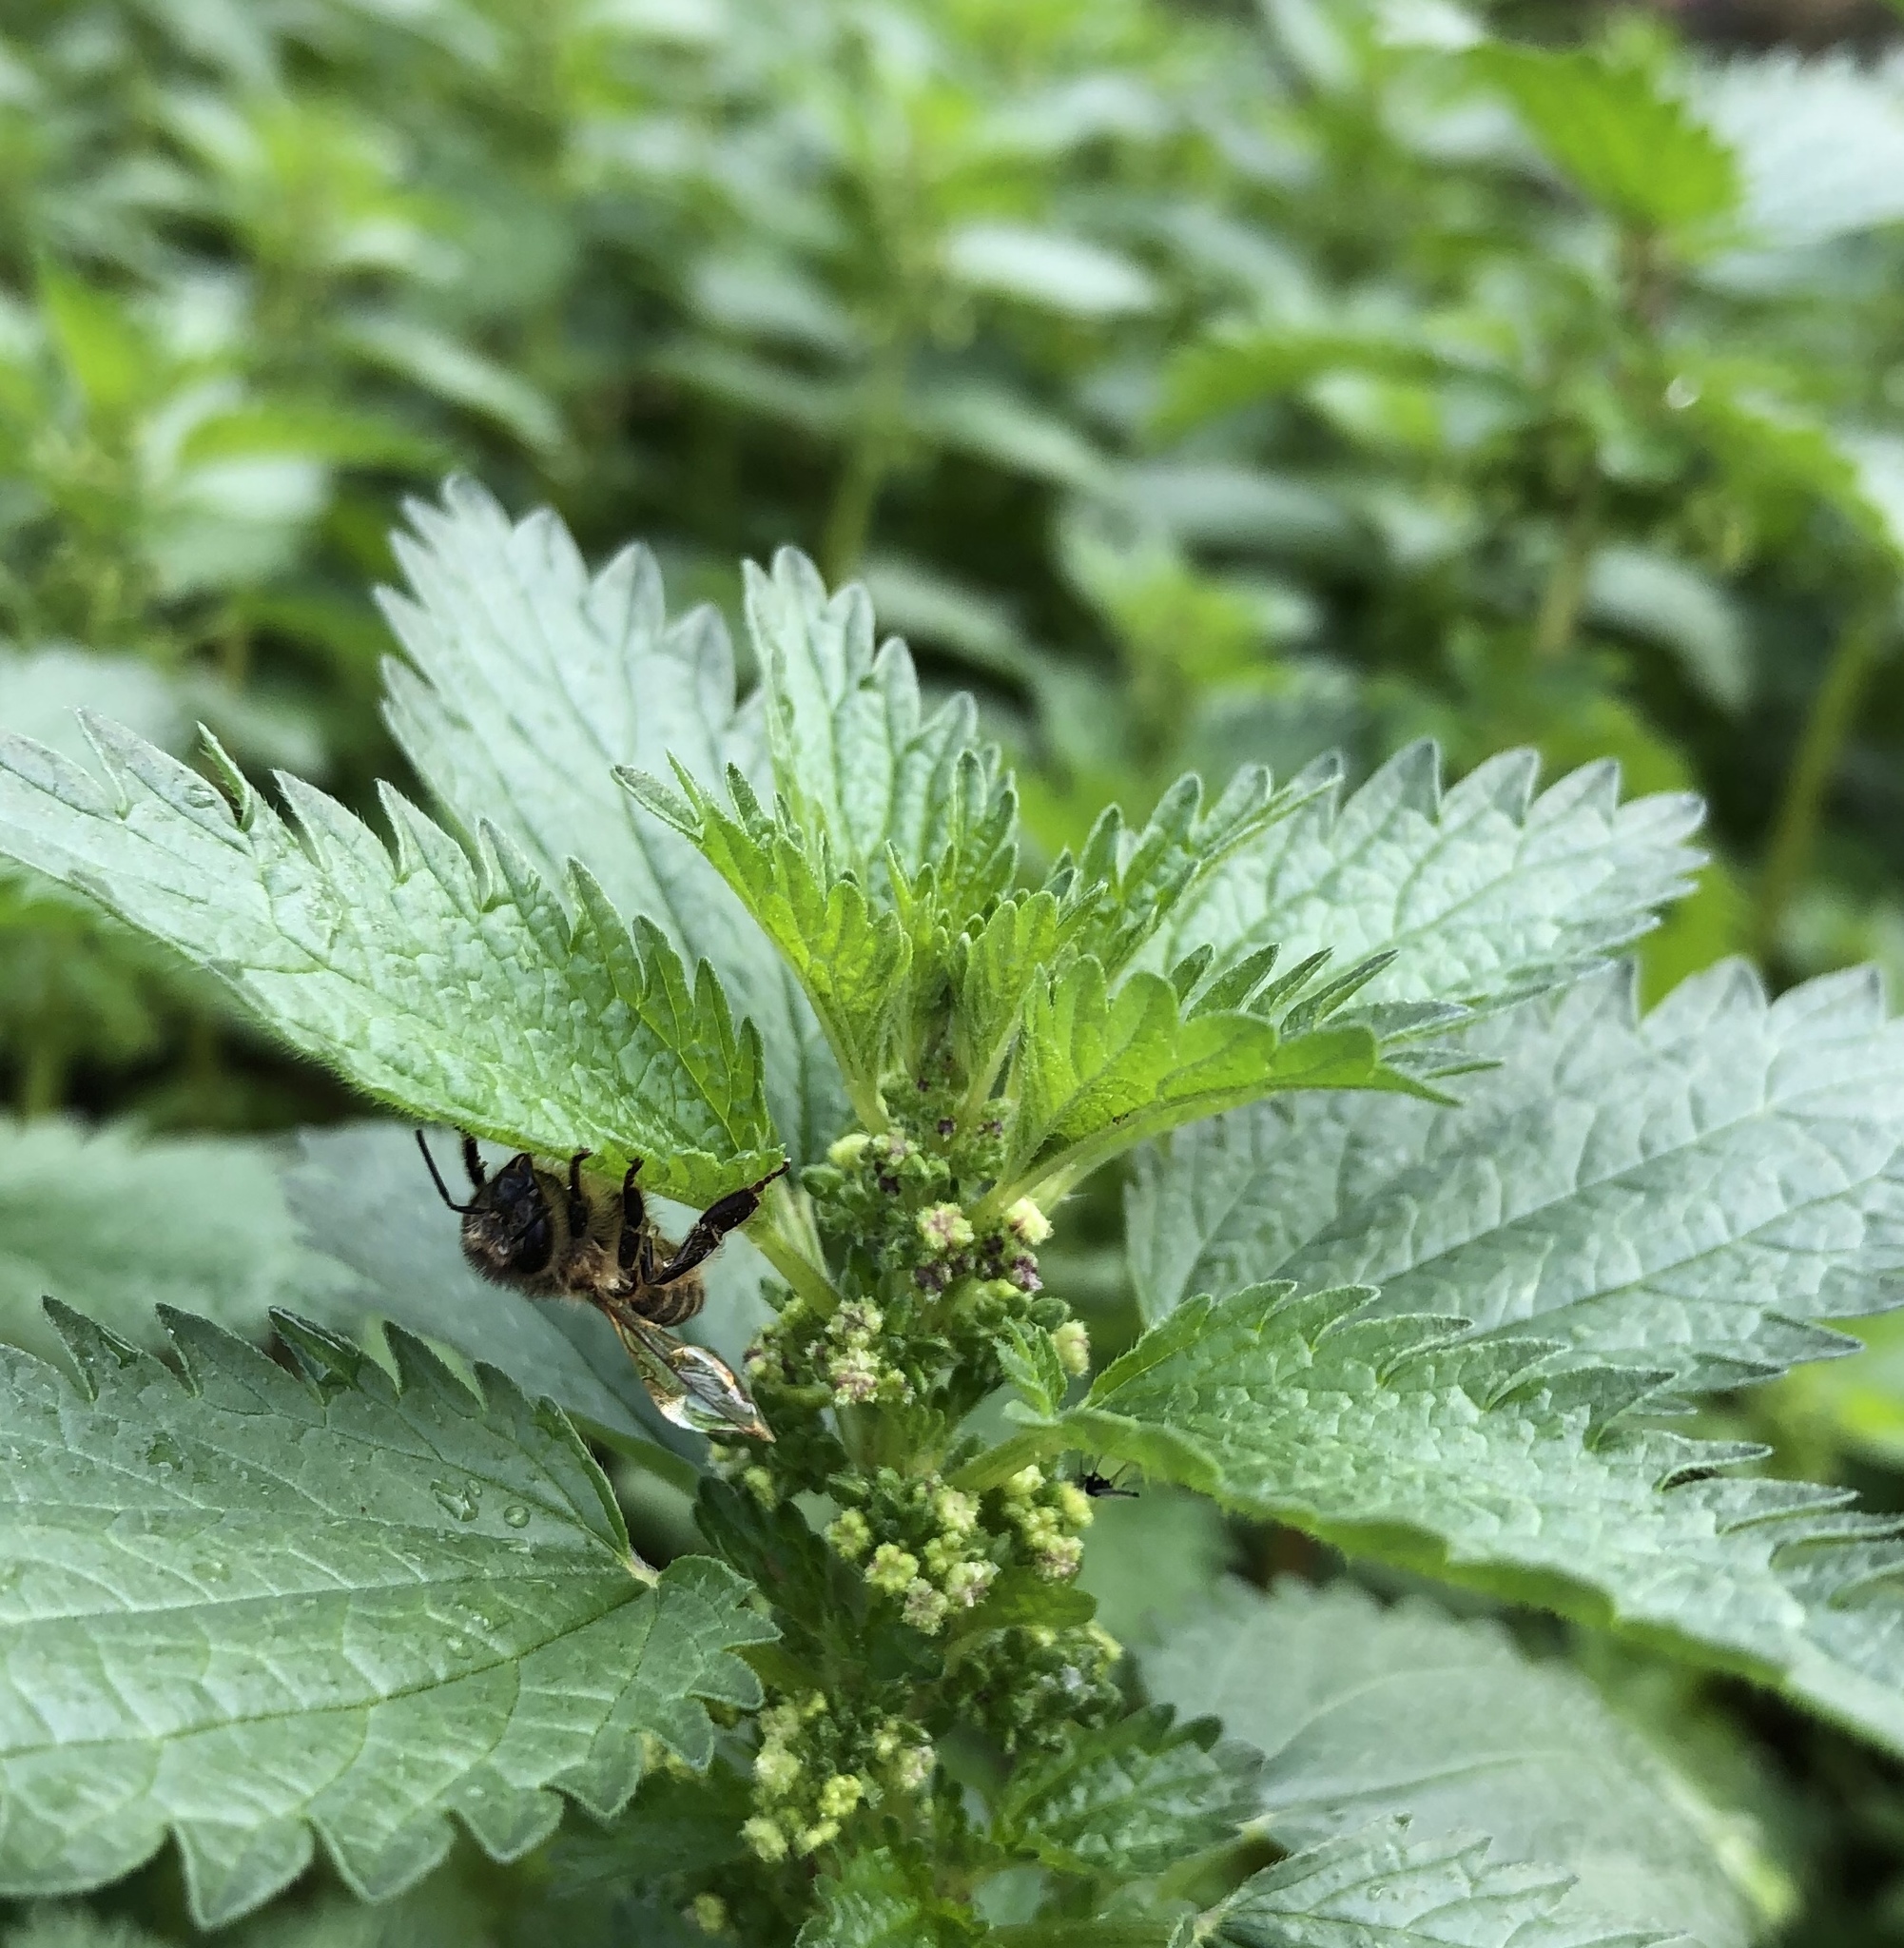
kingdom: Animalia
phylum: Arthropoda
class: Insecta
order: Hymenoptera
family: Apidae
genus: Apis
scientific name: Apis mellifera
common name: Honey bee
